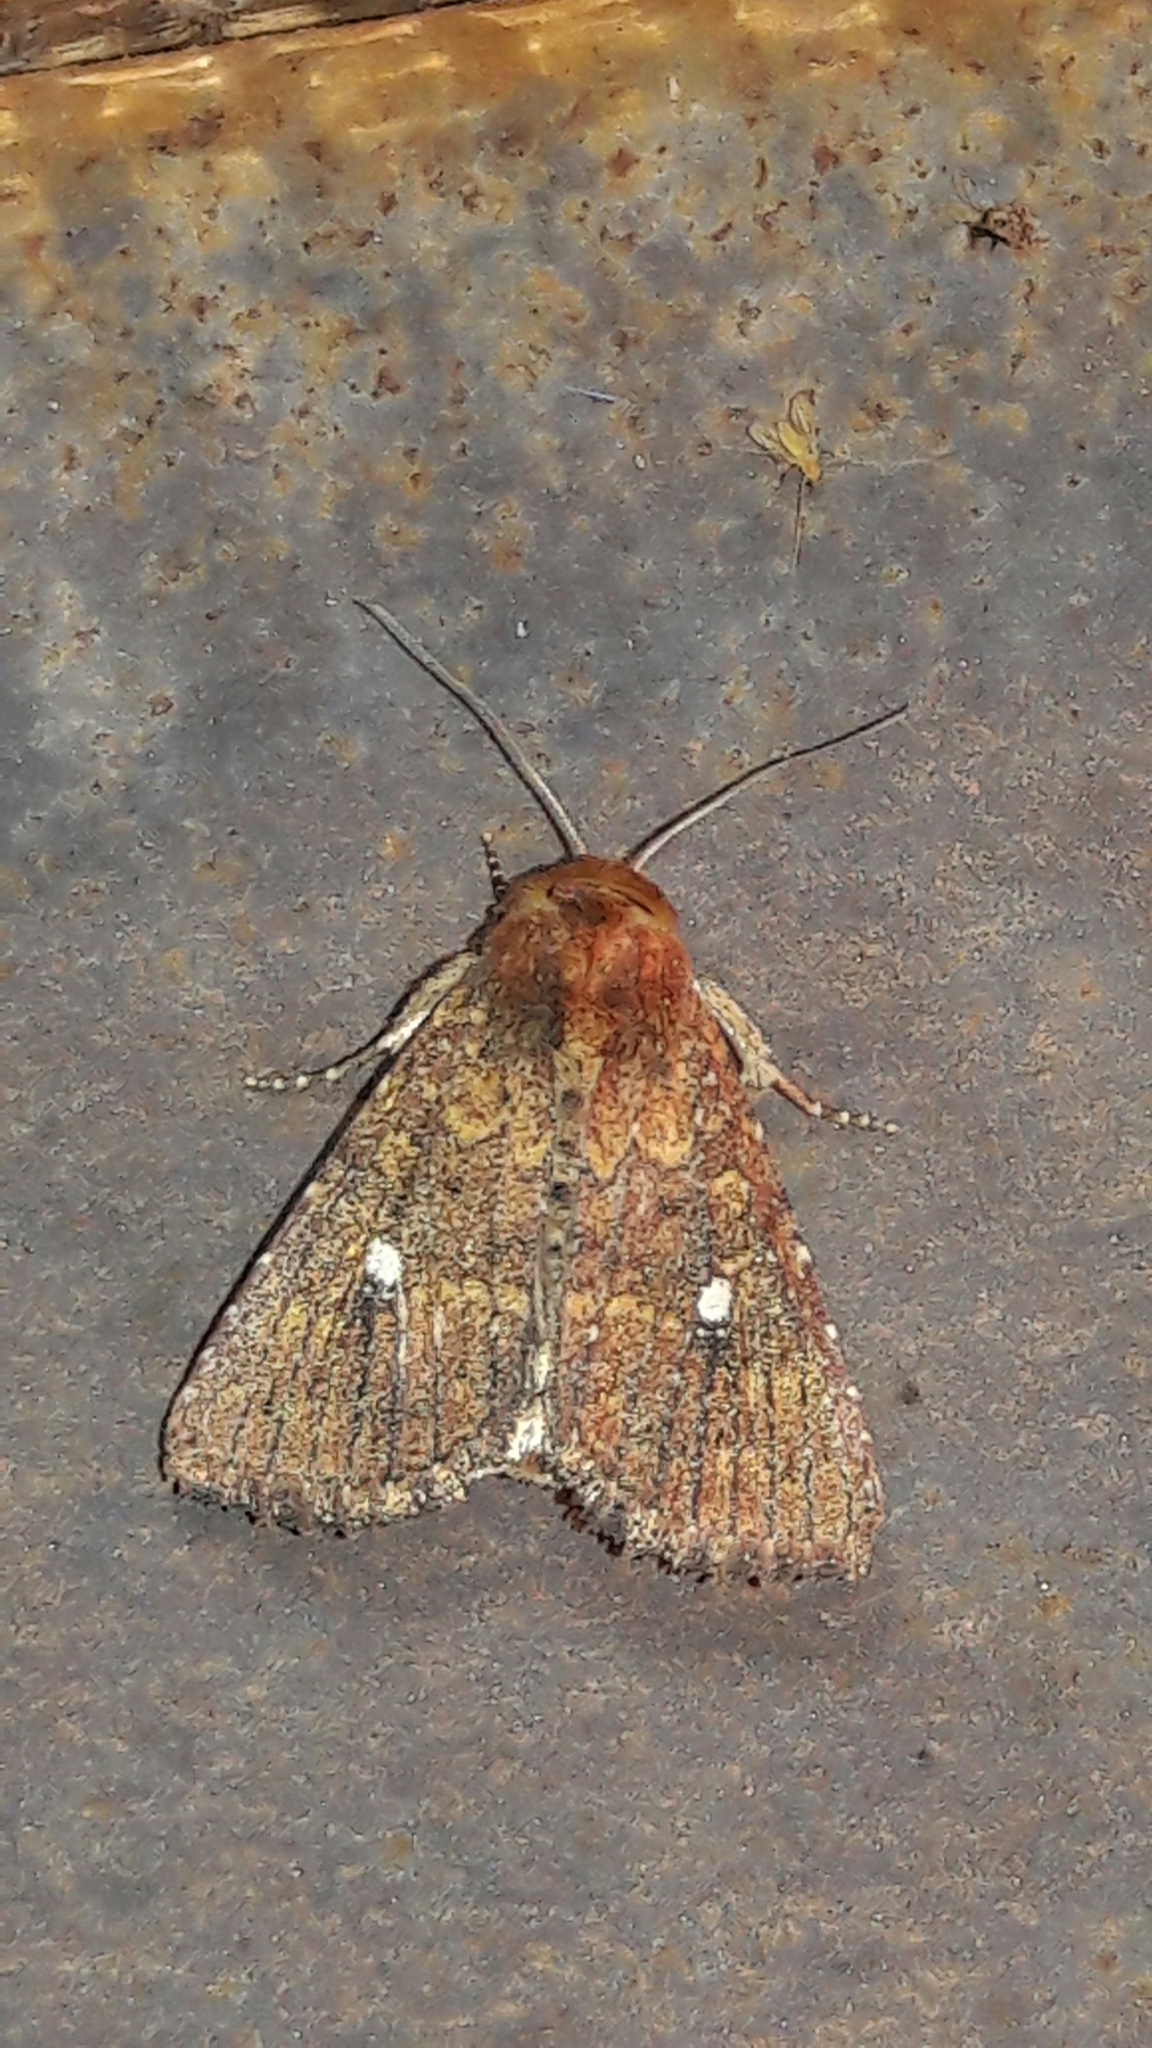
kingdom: Animalia
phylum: Arthropoda
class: Insecta
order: Lepidoptera
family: Noctuidae
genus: Condica
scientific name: Condica mobilis
